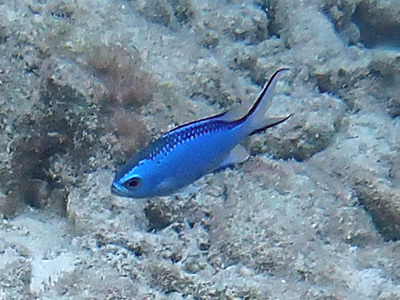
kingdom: Animalia
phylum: Chordata
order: Perciformes
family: Pomacentridae
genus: Chromis
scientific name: Chromis cyanea
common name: Blue chromis
